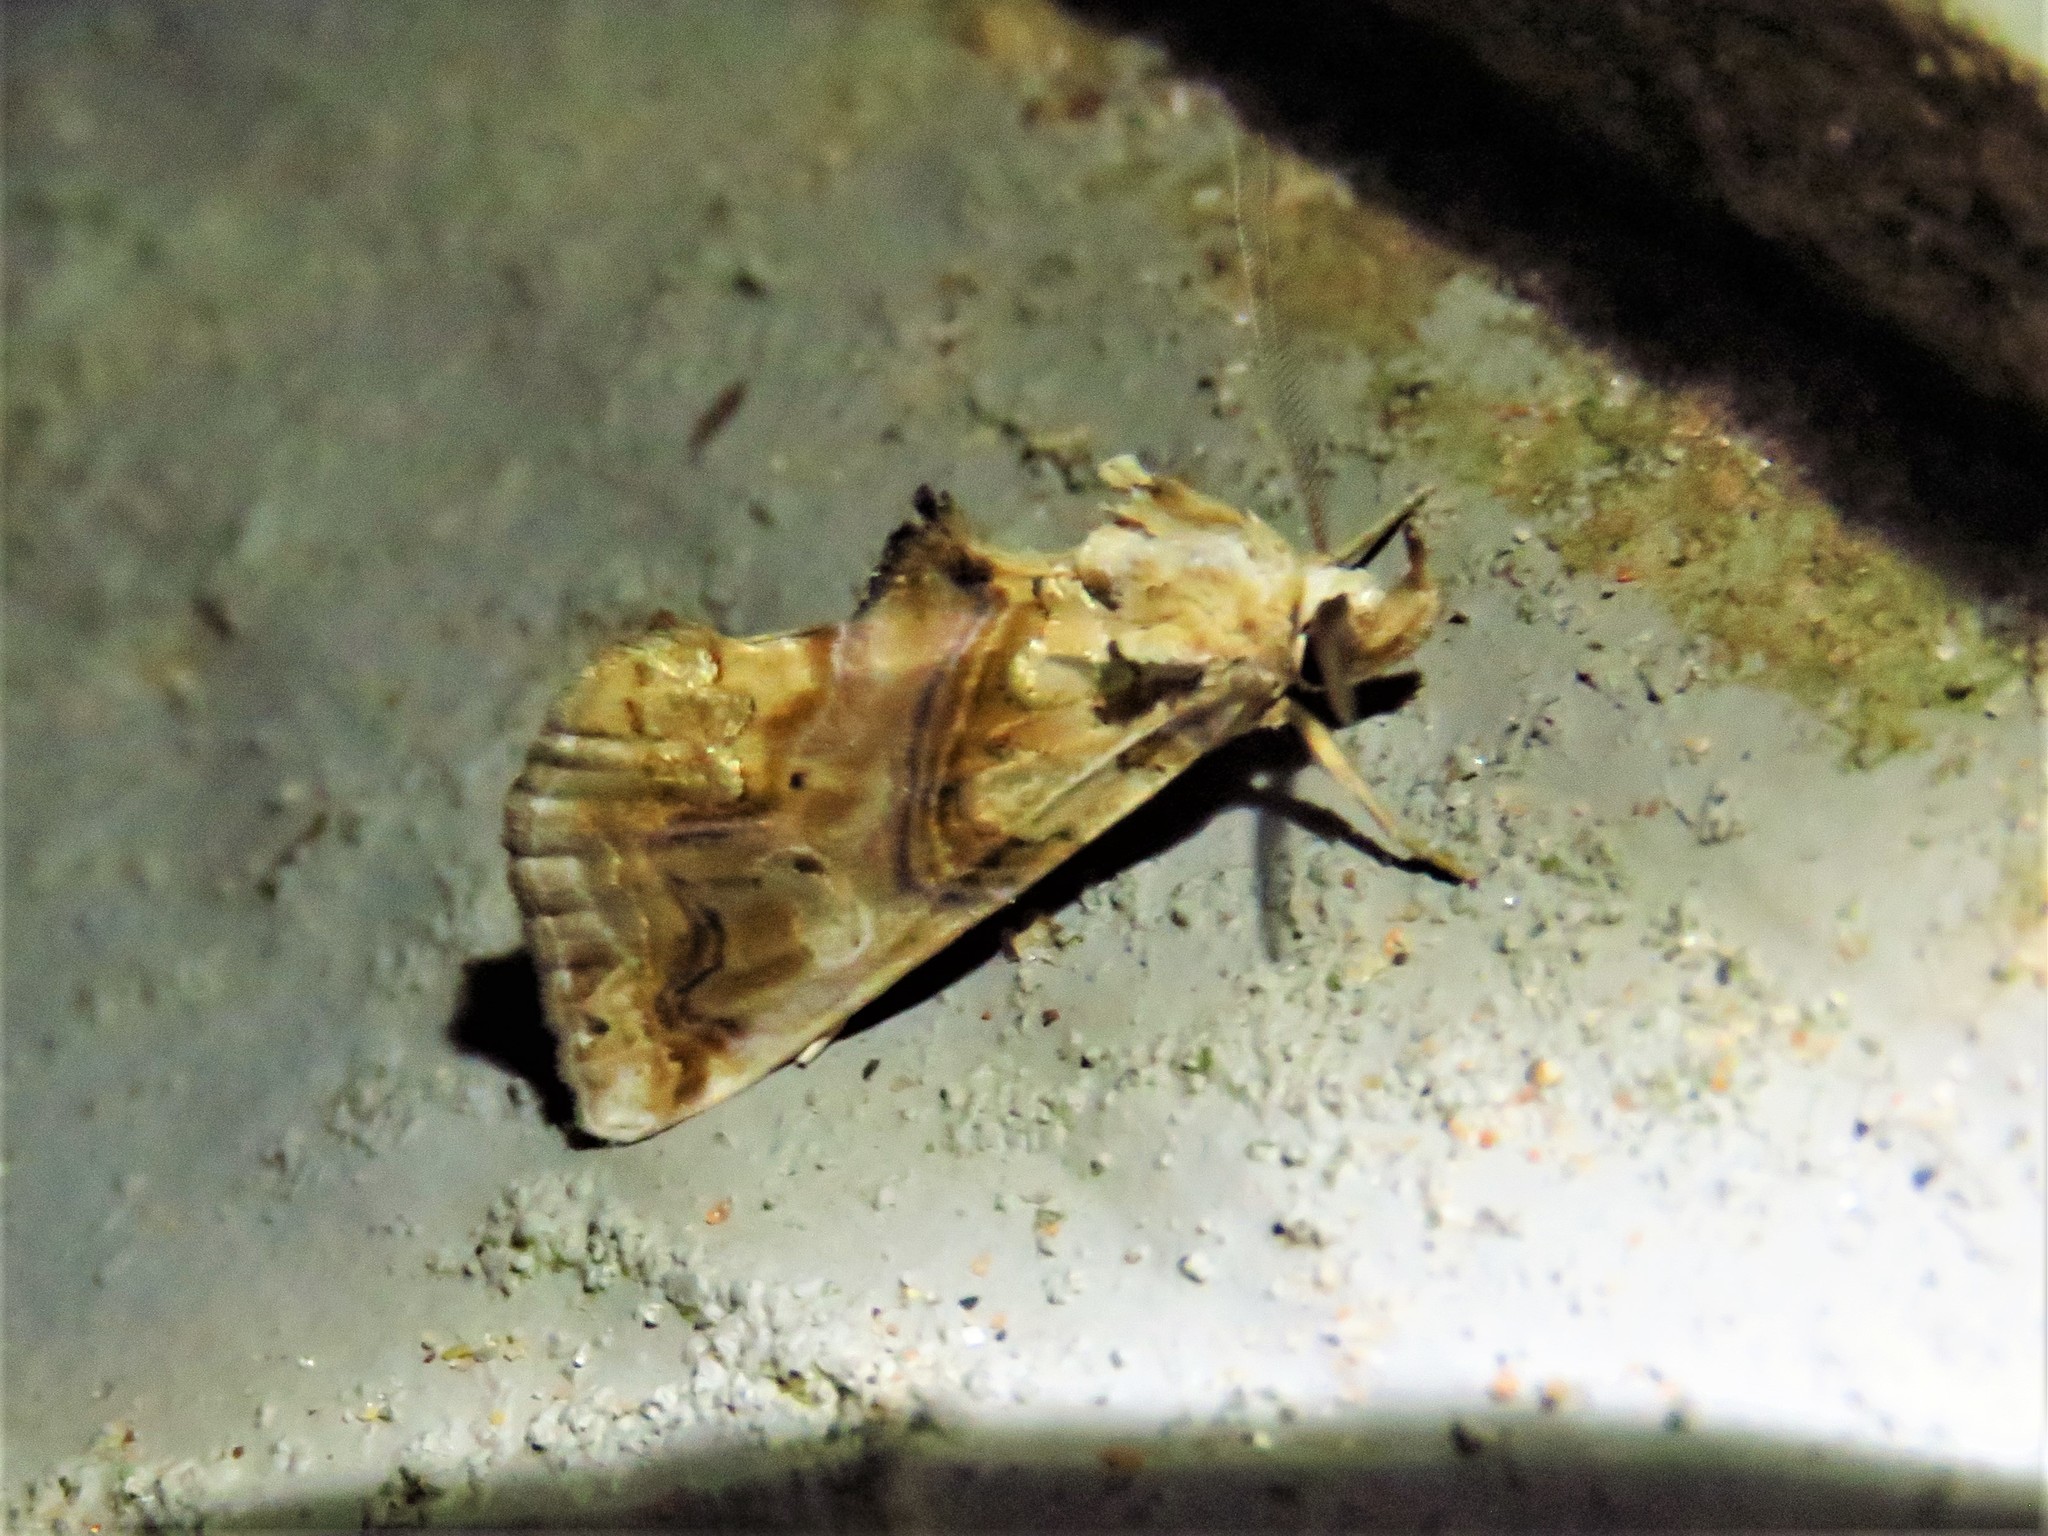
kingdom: Animalia
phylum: Arthropoda
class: Insecta
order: Lepidoptera
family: Erebidae
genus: Plusiodonta
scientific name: Plusiodonta compressipalpis
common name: Moonseed moth
